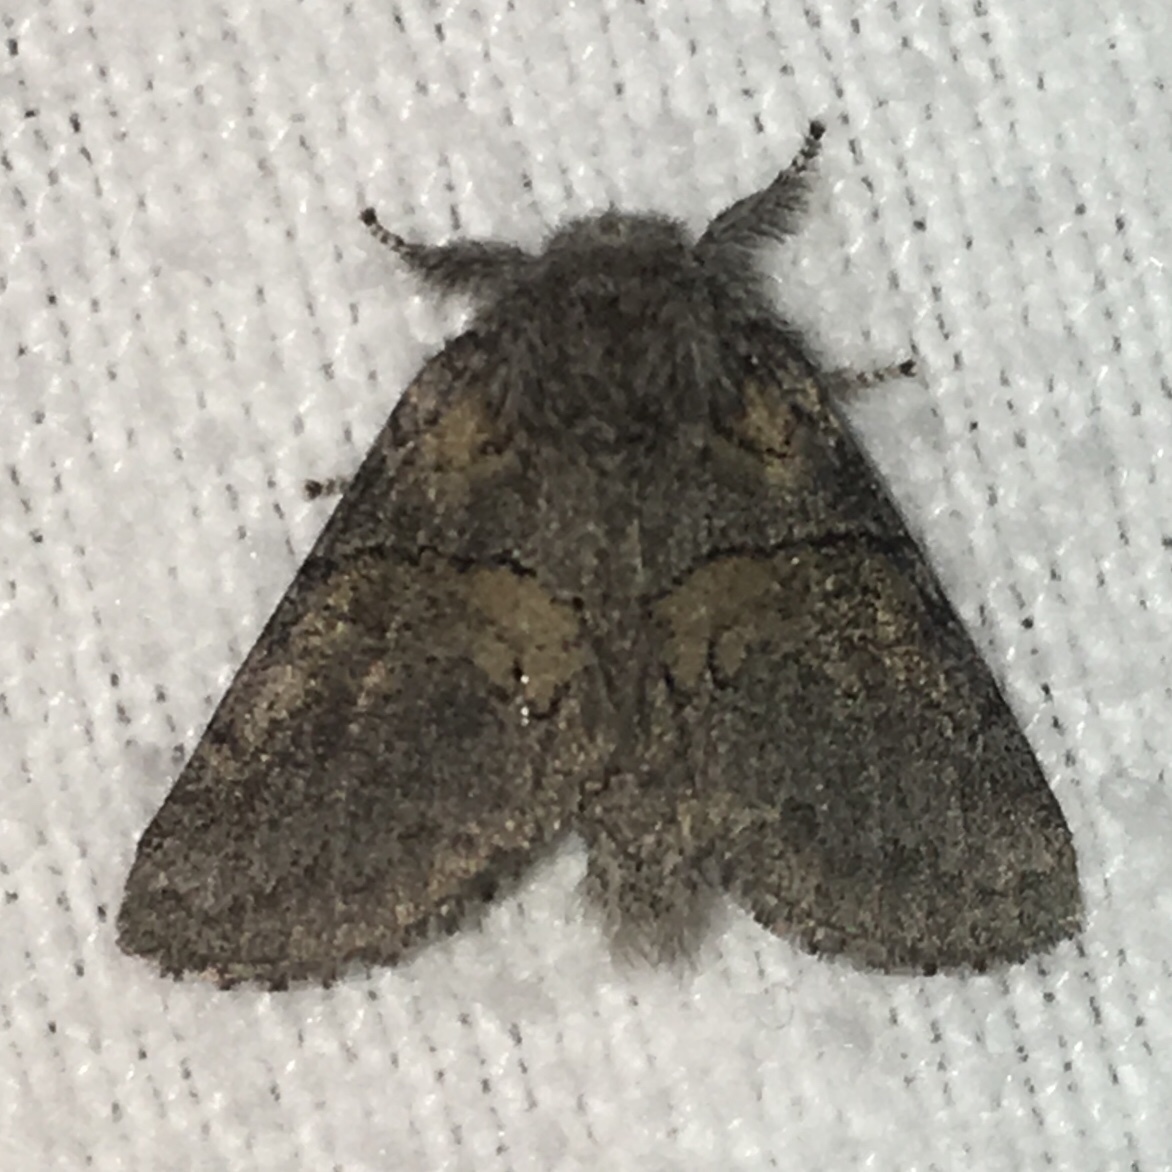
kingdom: Animalia
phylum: Arthropoda
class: Insecta
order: Lepidoptera
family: Notodontidae
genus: Gluphisia
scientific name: Gluphisia septentrionis
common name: Common gluphisia
